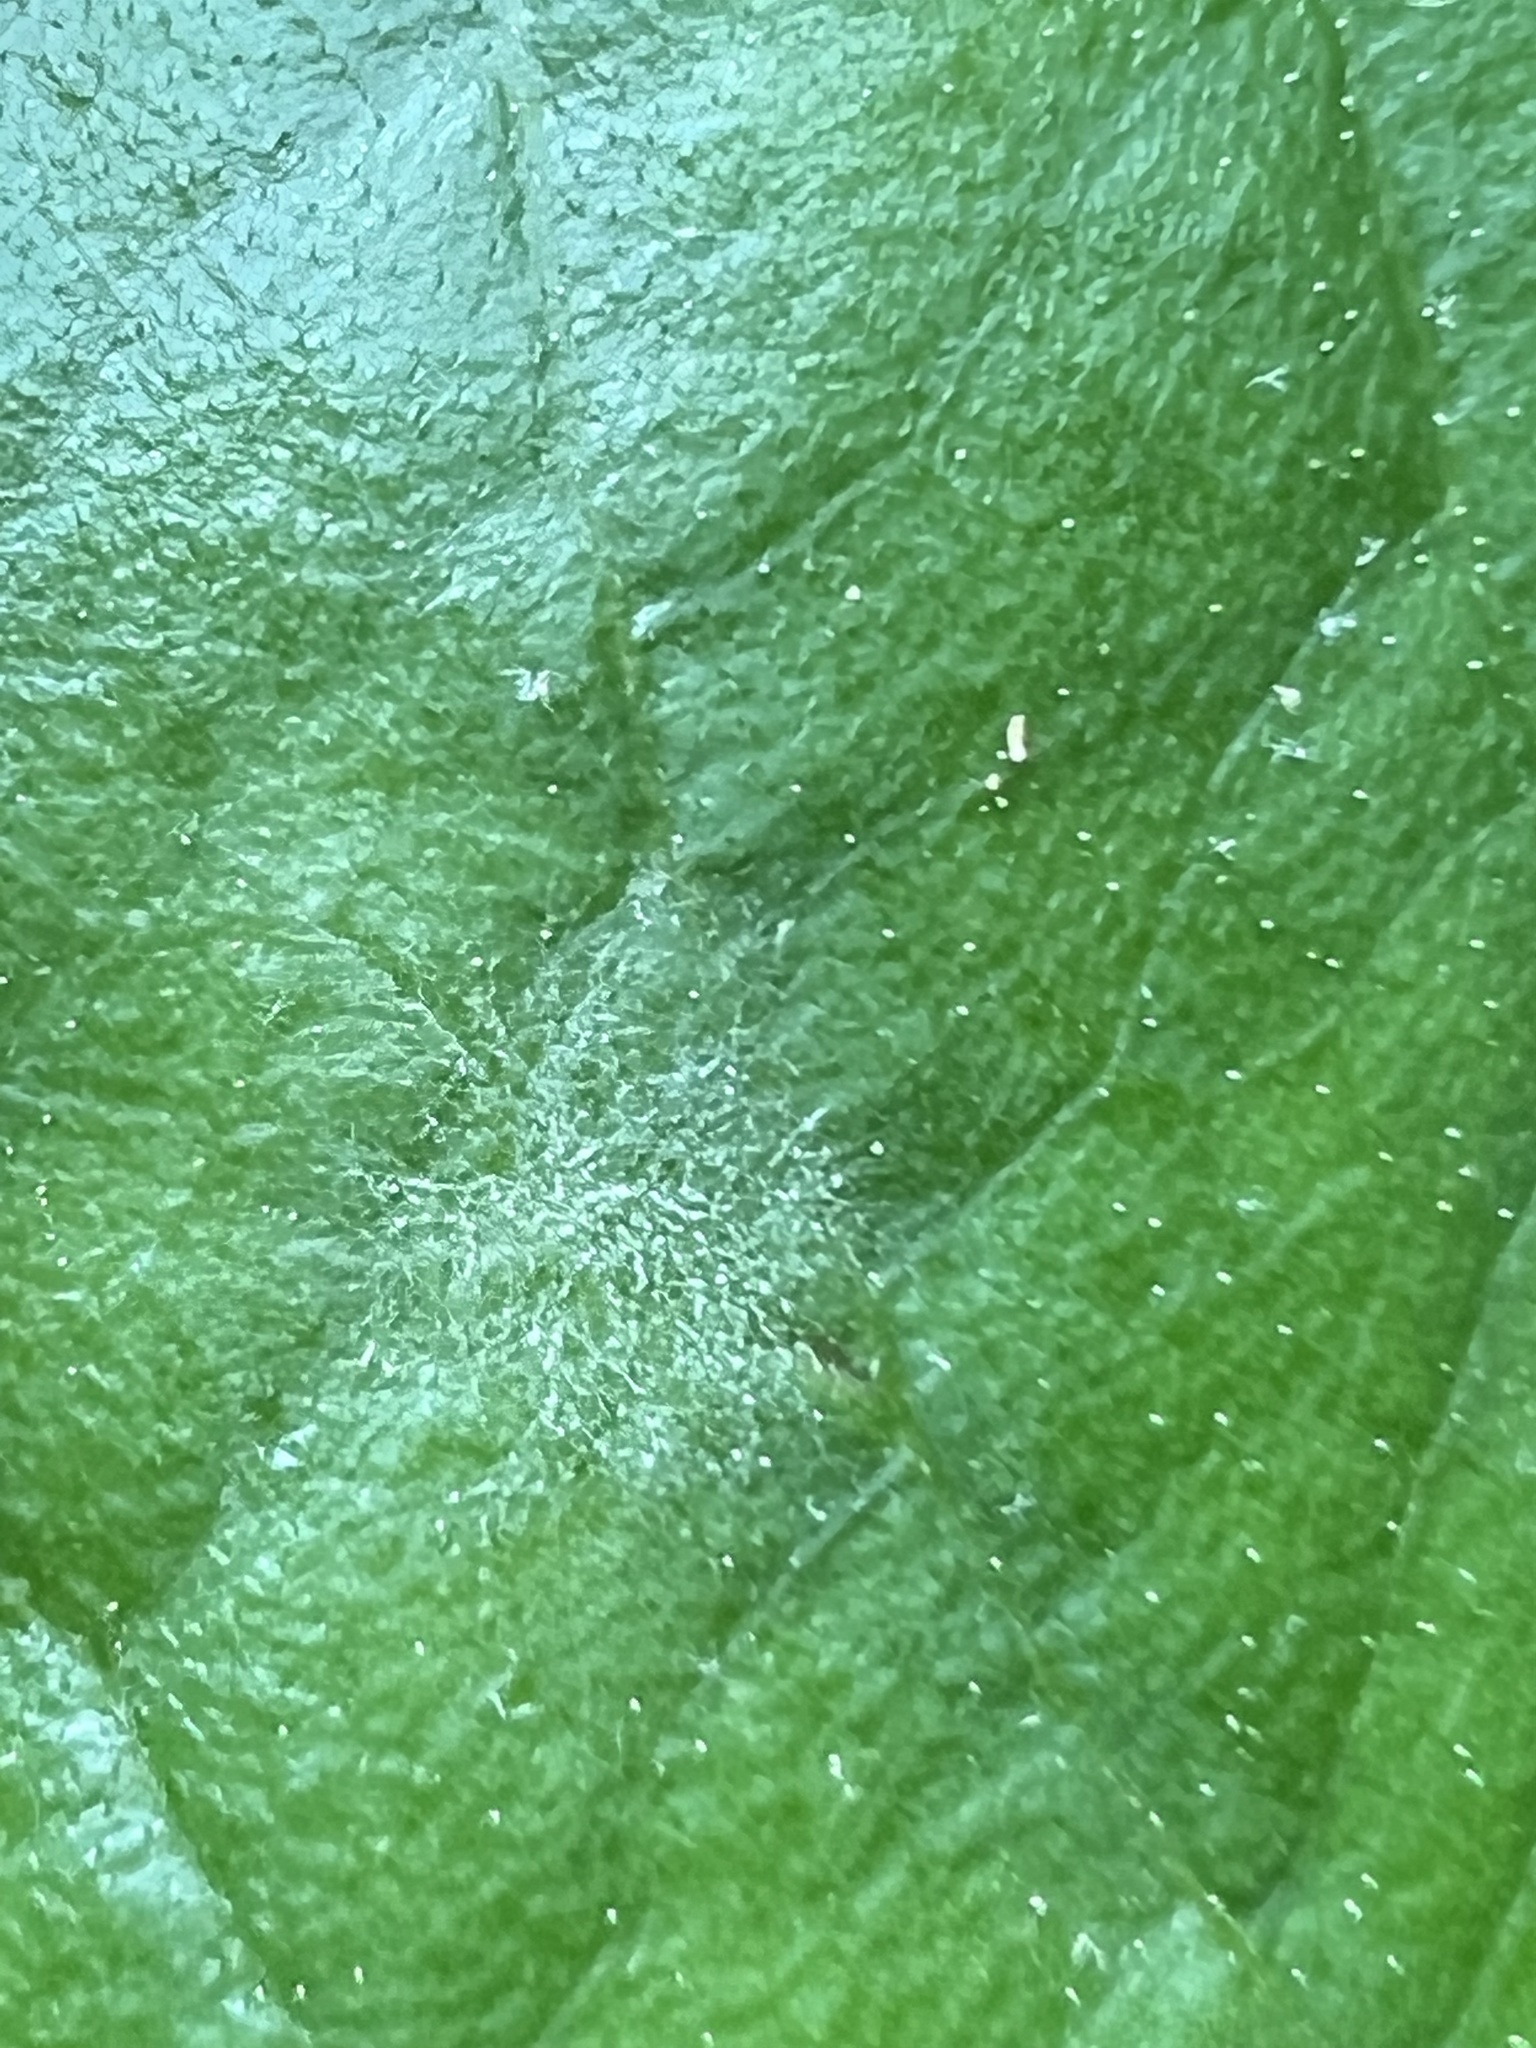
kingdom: Fungi
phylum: Ascomycota
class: Leotiomycetes
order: Helotiales
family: Erysiphaceae
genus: Erysiphe
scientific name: Erysiphe
